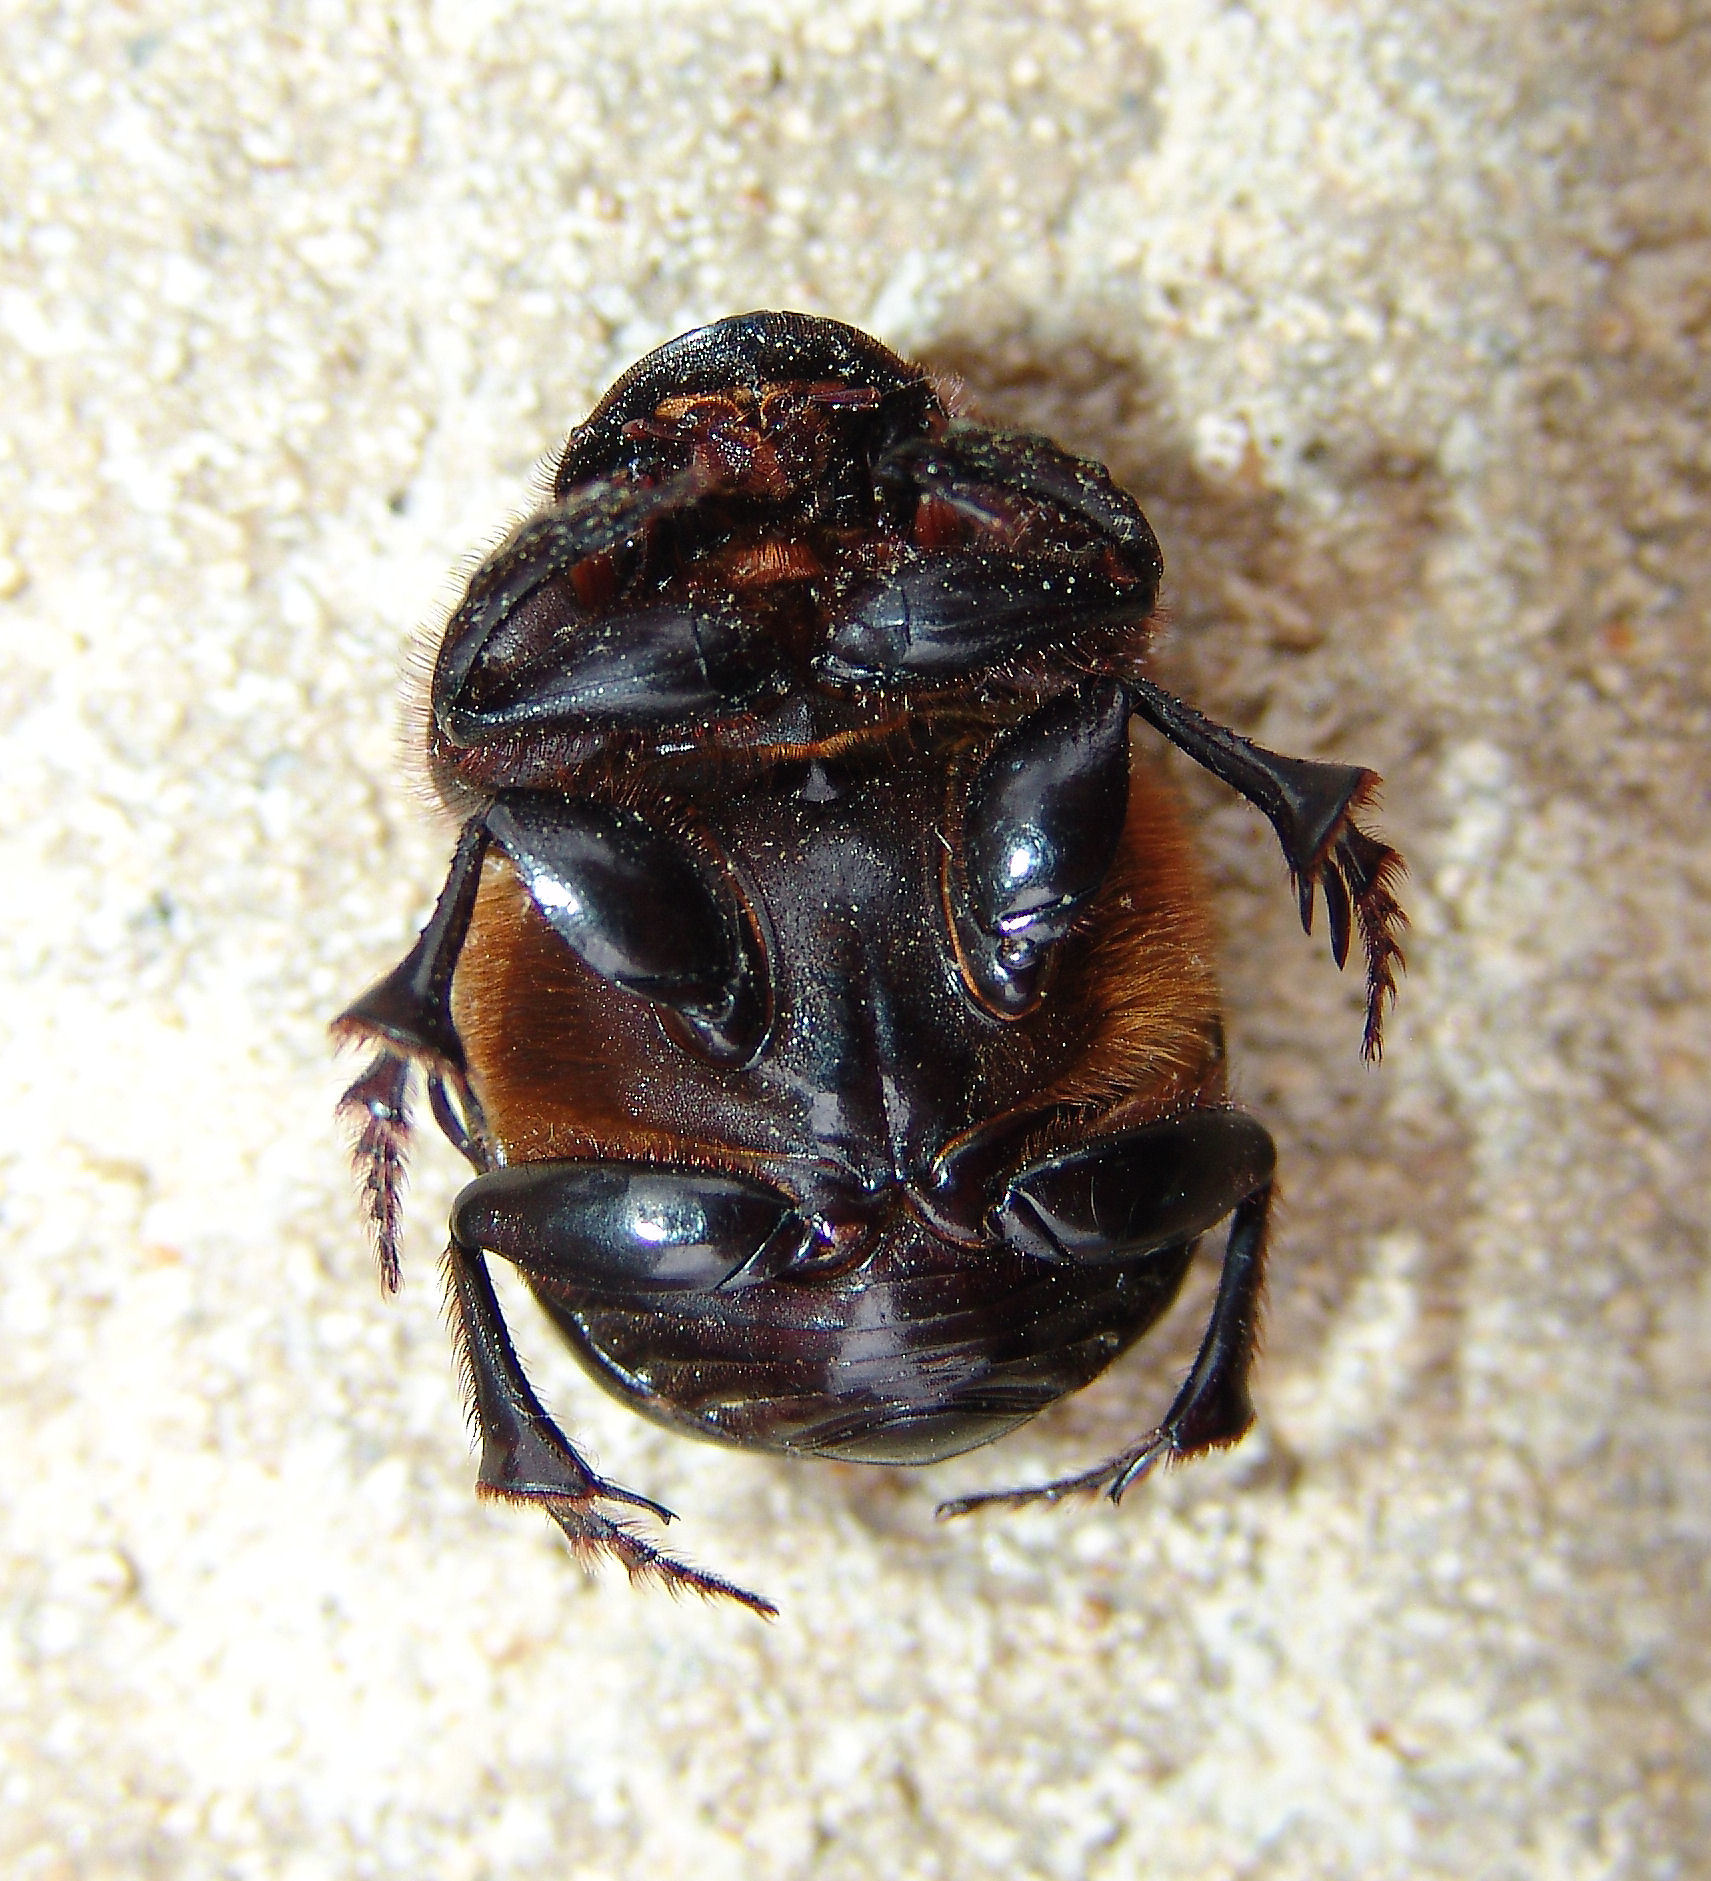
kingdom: Animalia
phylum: Arthropoda
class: Insecta
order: Coleoptera
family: Scarabaeidae
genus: Dichotomius
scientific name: Dichotomius carolinus
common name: Carolina copris
